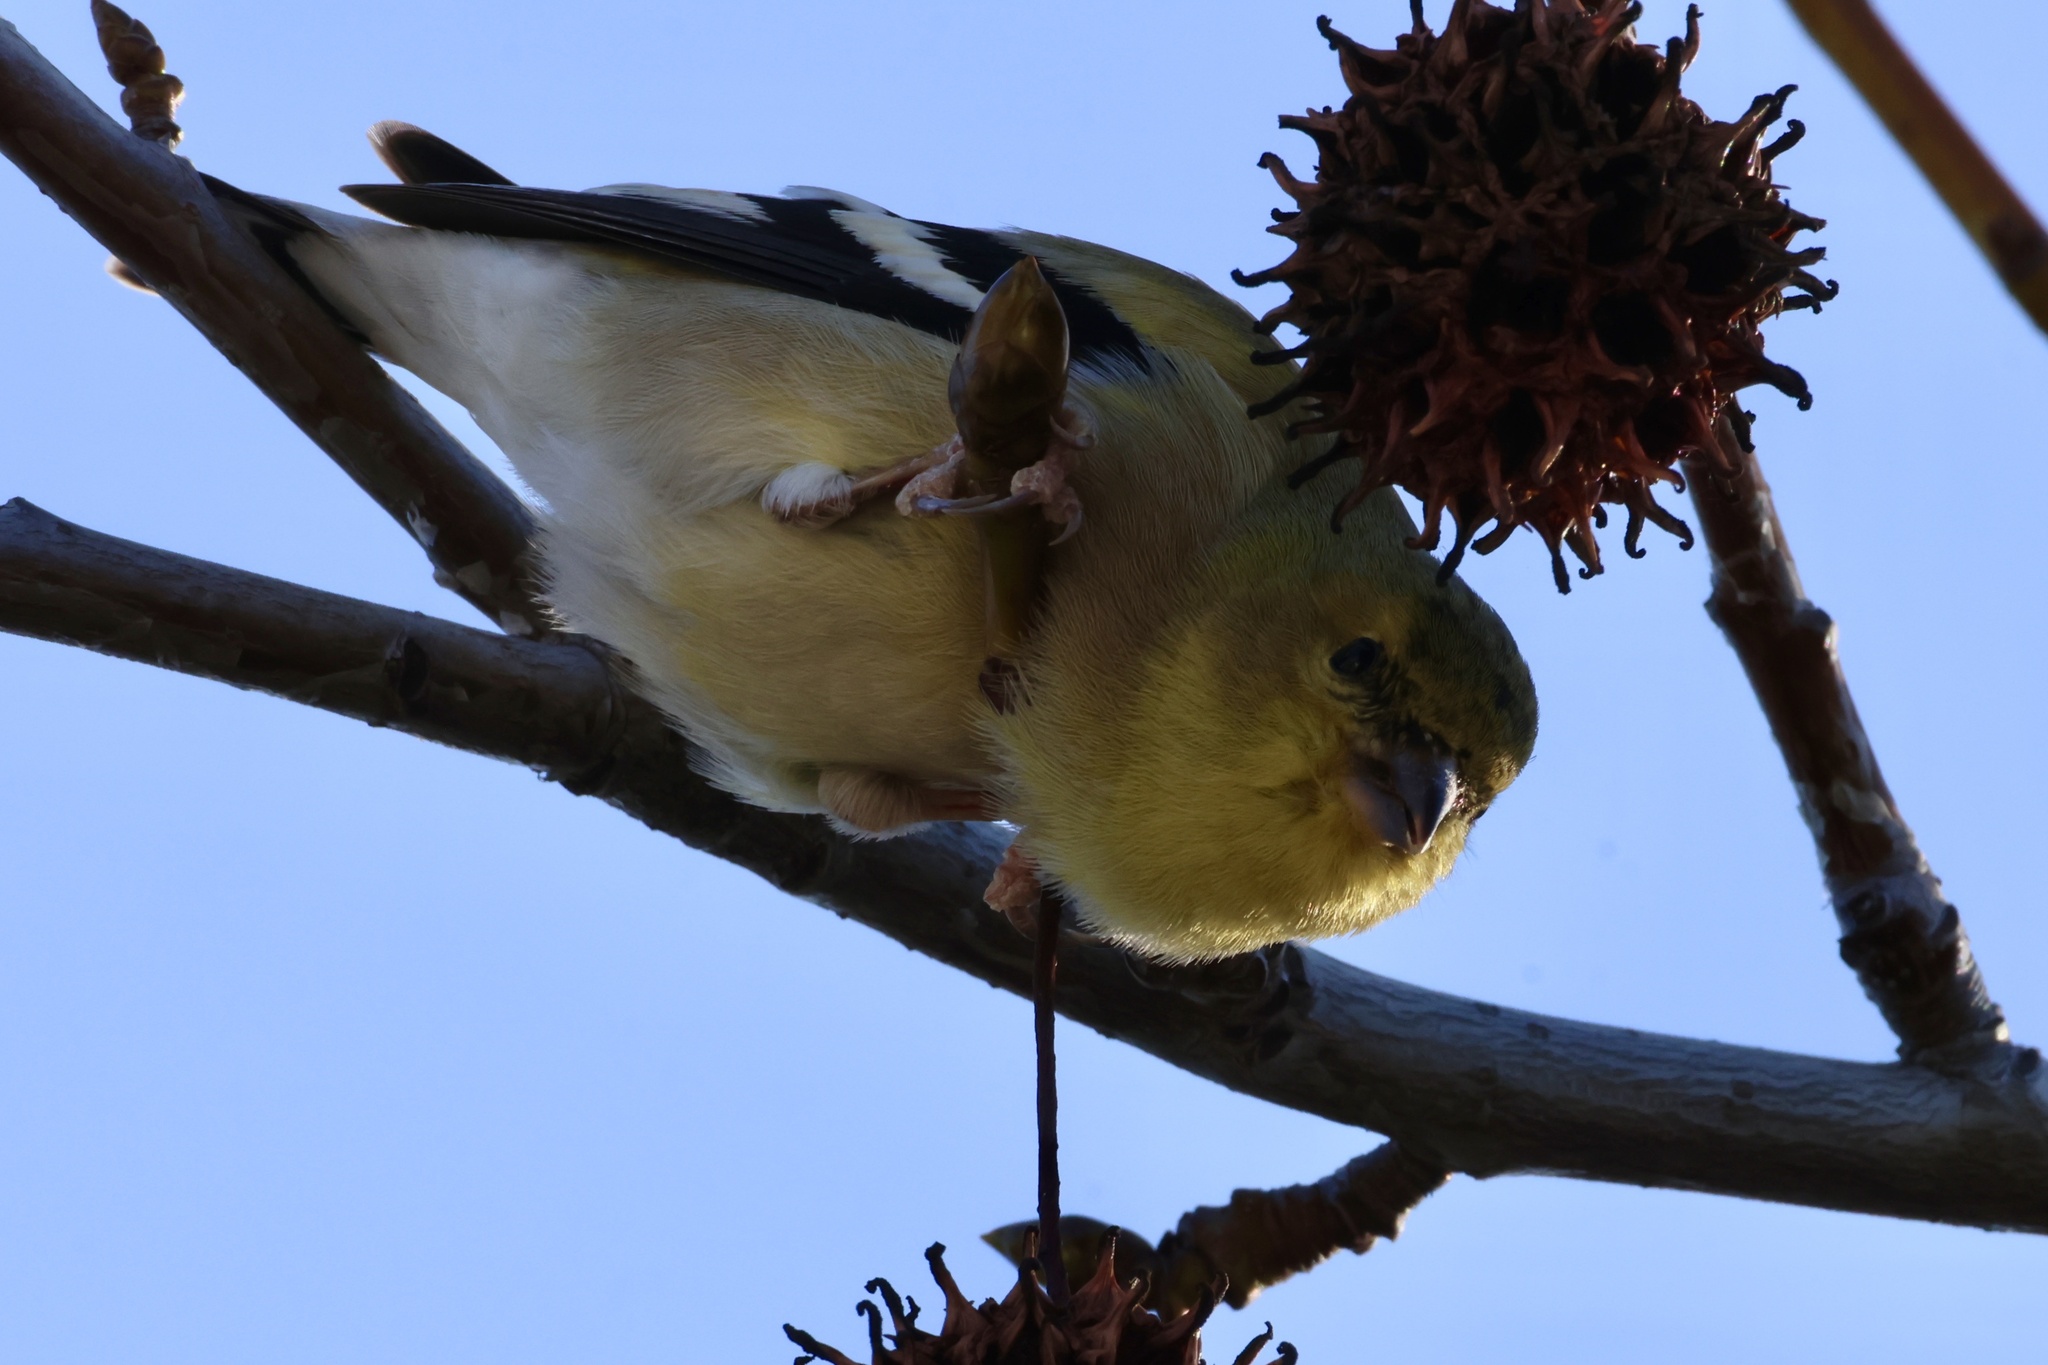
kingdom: Animalia
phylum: Chordata
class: Aves
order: Passeriformes
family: Fringillidae
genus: Spinus
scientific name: Spinus tristis
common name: American goldfinch
